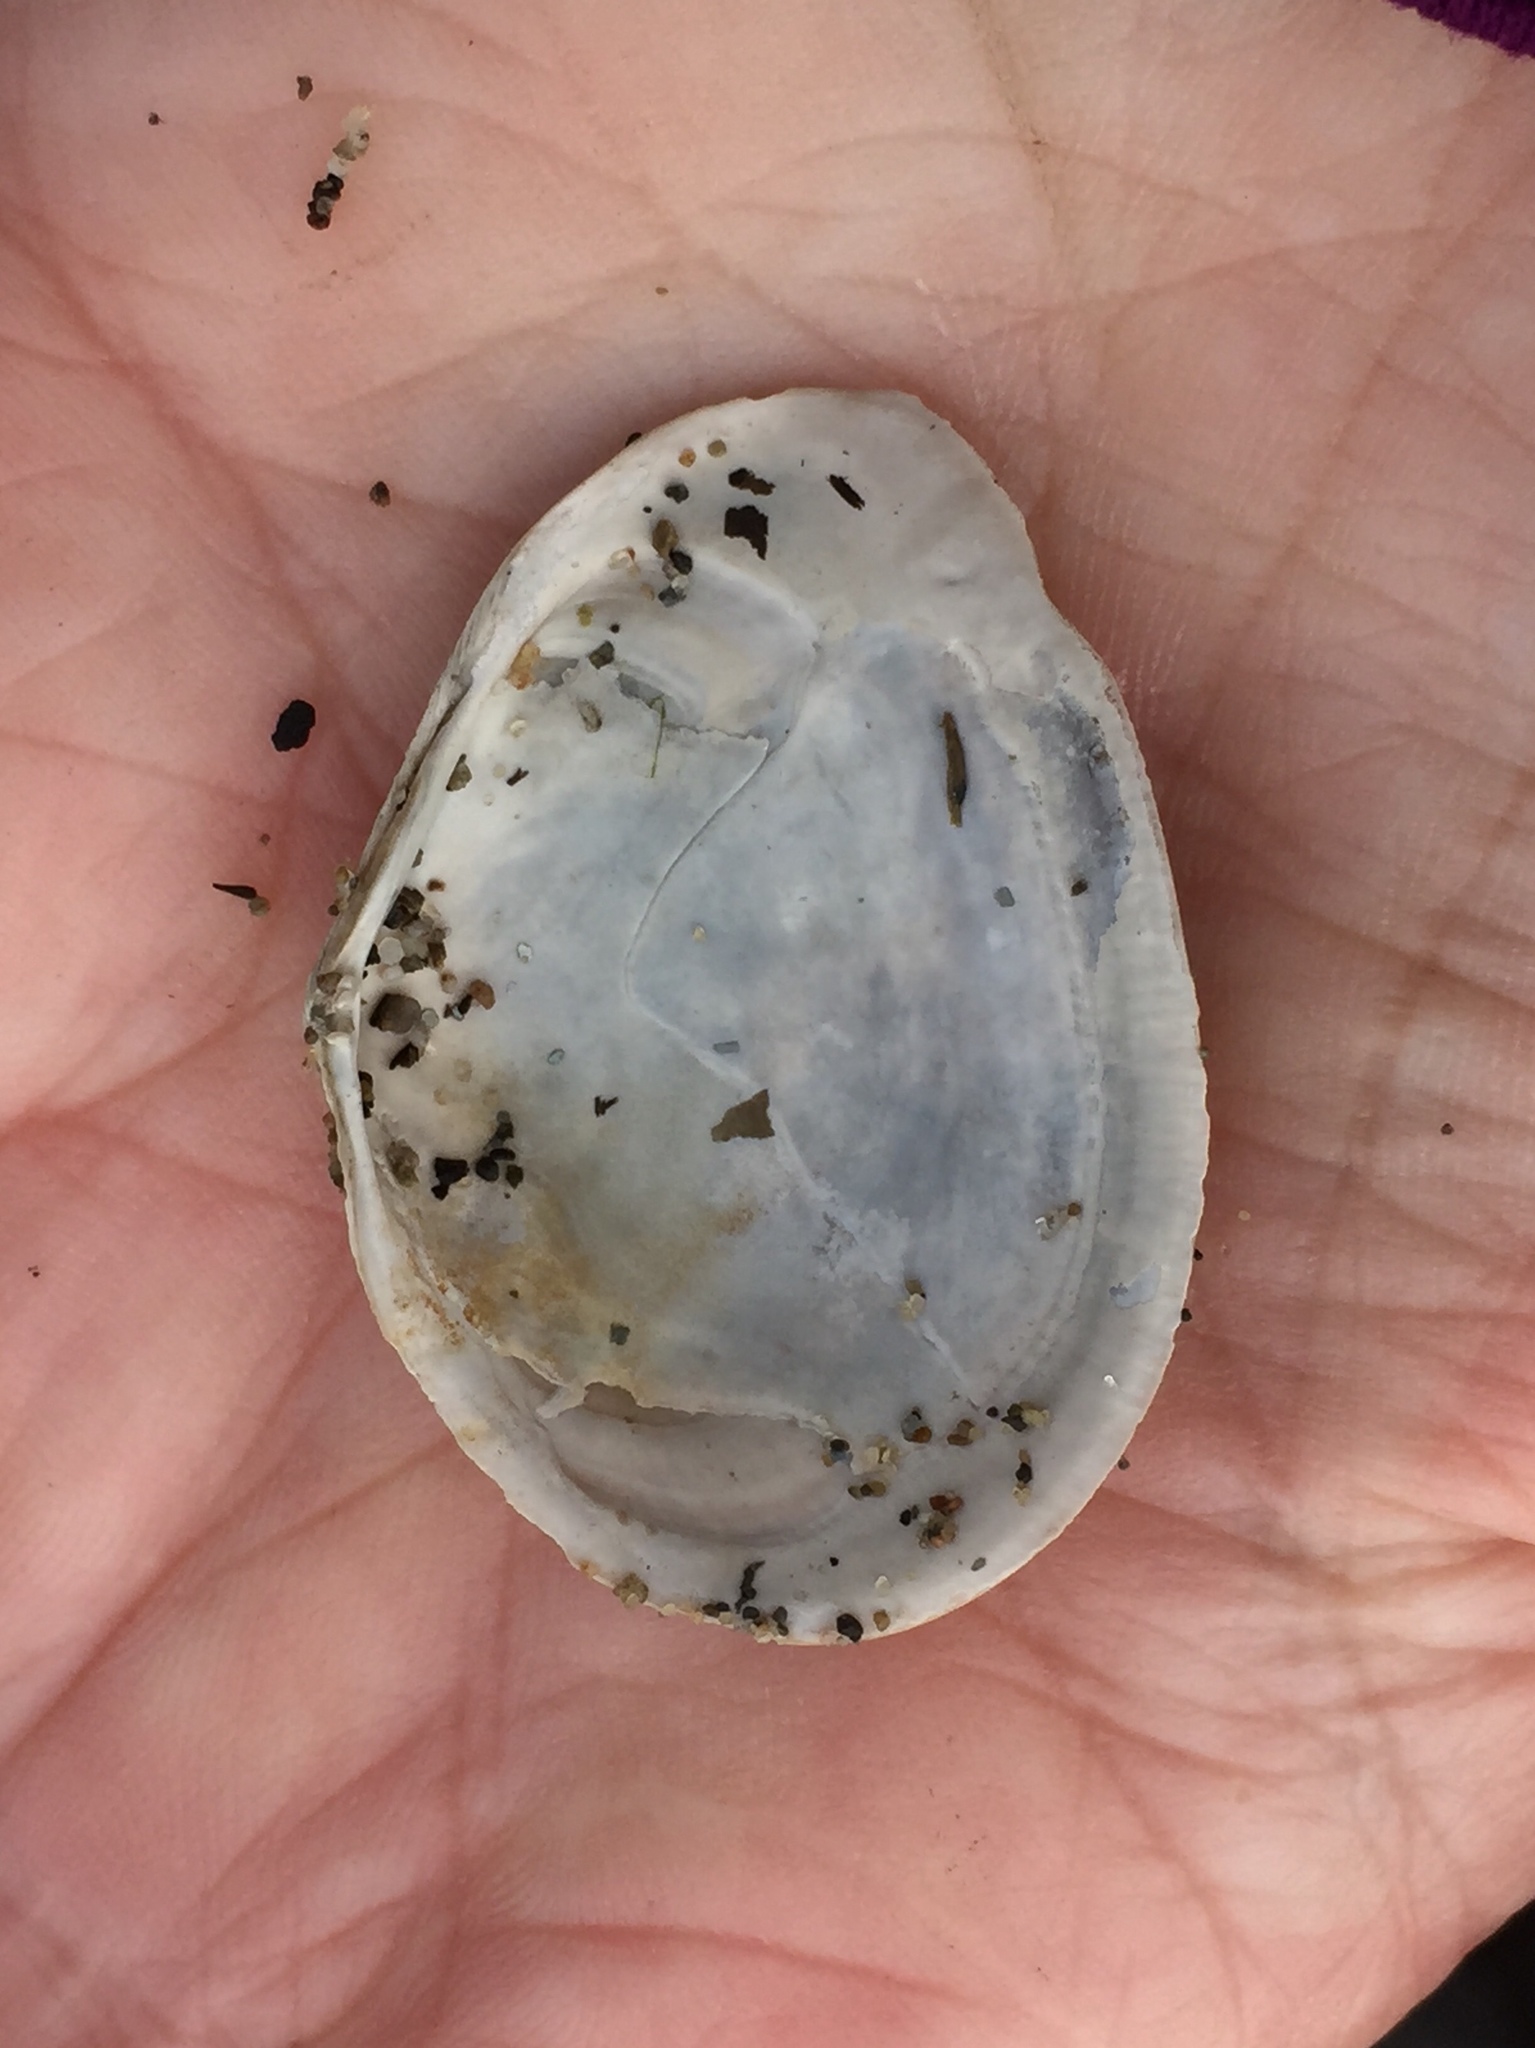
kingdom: Animalia
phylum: Mollusca
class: Bivalvia
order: Cardiida
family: Tellinidae
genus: Macoma
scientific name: Macoma nasuta
